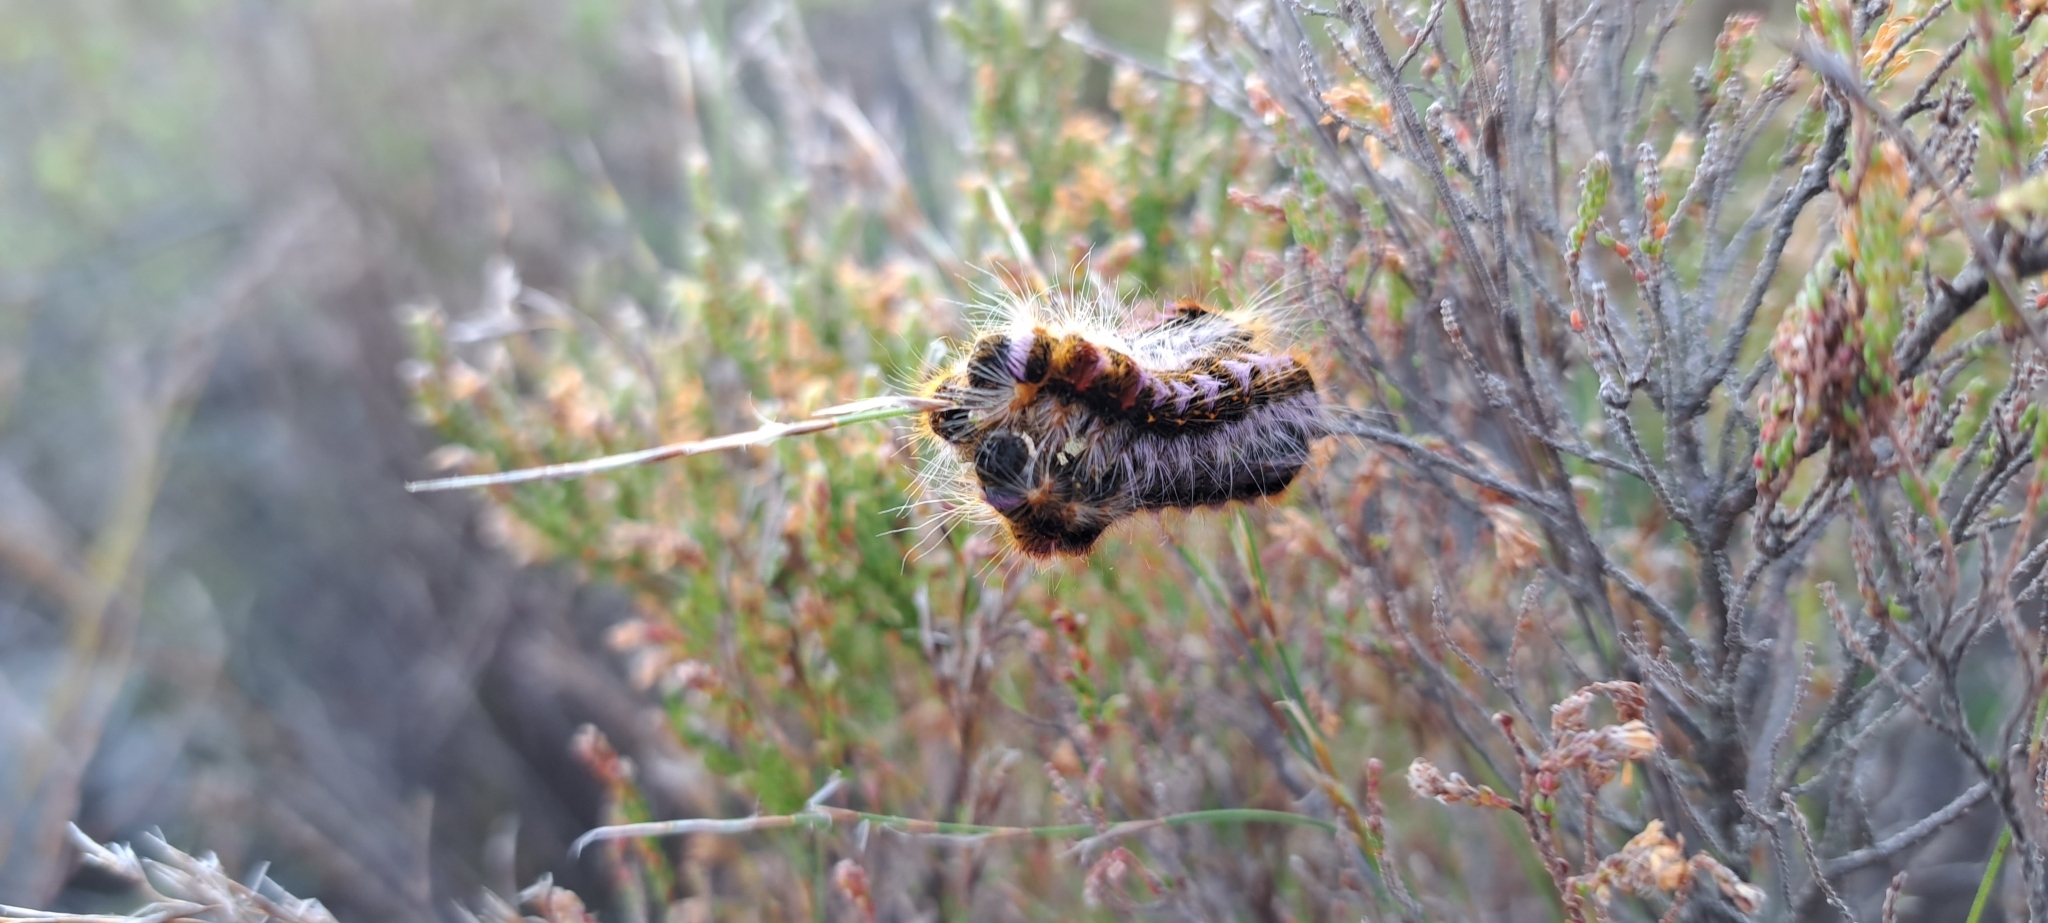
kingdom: Animalia
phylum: Arthropoda
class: Insecta
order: Lepidoptera
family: Lasiocampidae
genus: Eutricha
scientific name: Eutricha bifascia
